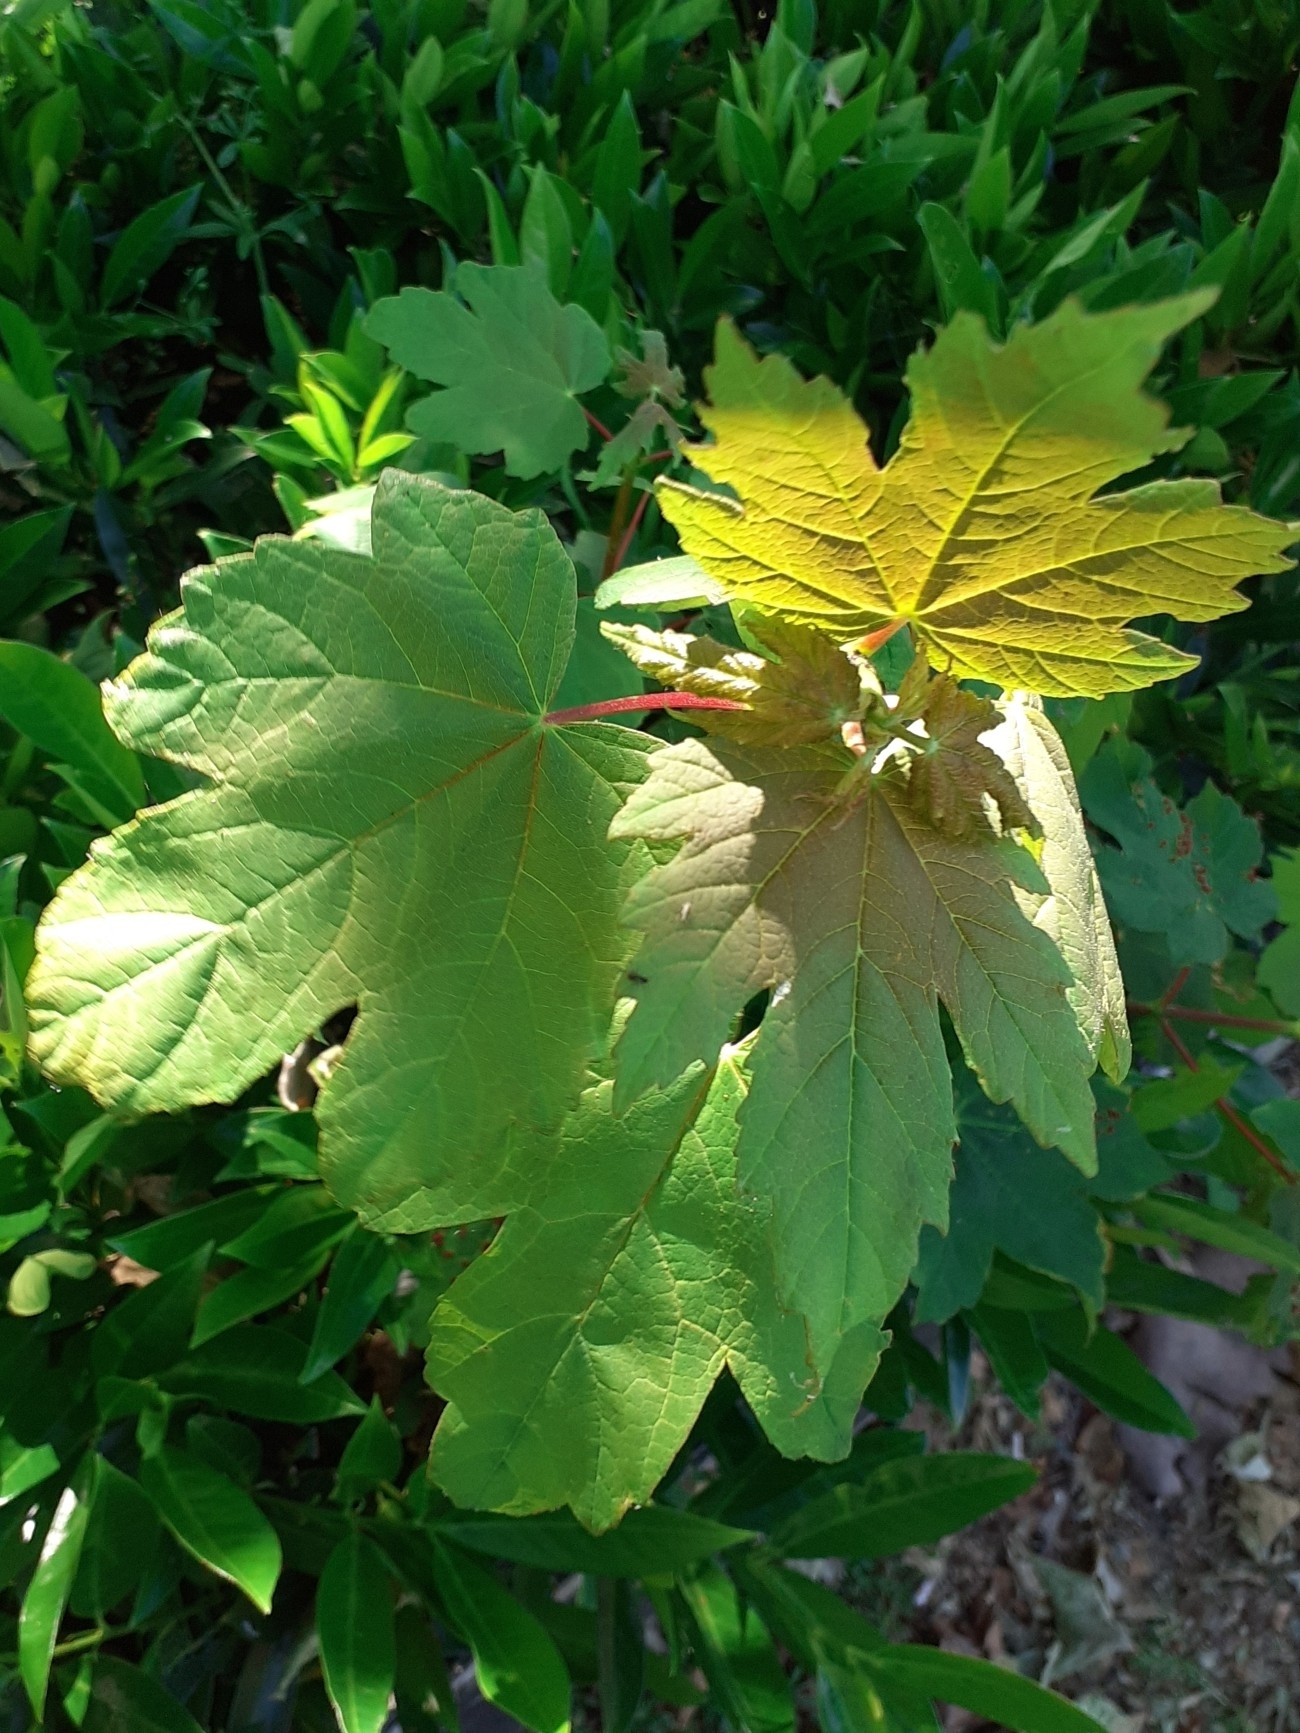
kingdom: Plantae
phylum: Tracheophyta
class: Magnoliopsida
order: Sapindales
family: Sapindaceae
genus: Acer
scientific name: Acer pseudoplatanus
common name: Sycamore
